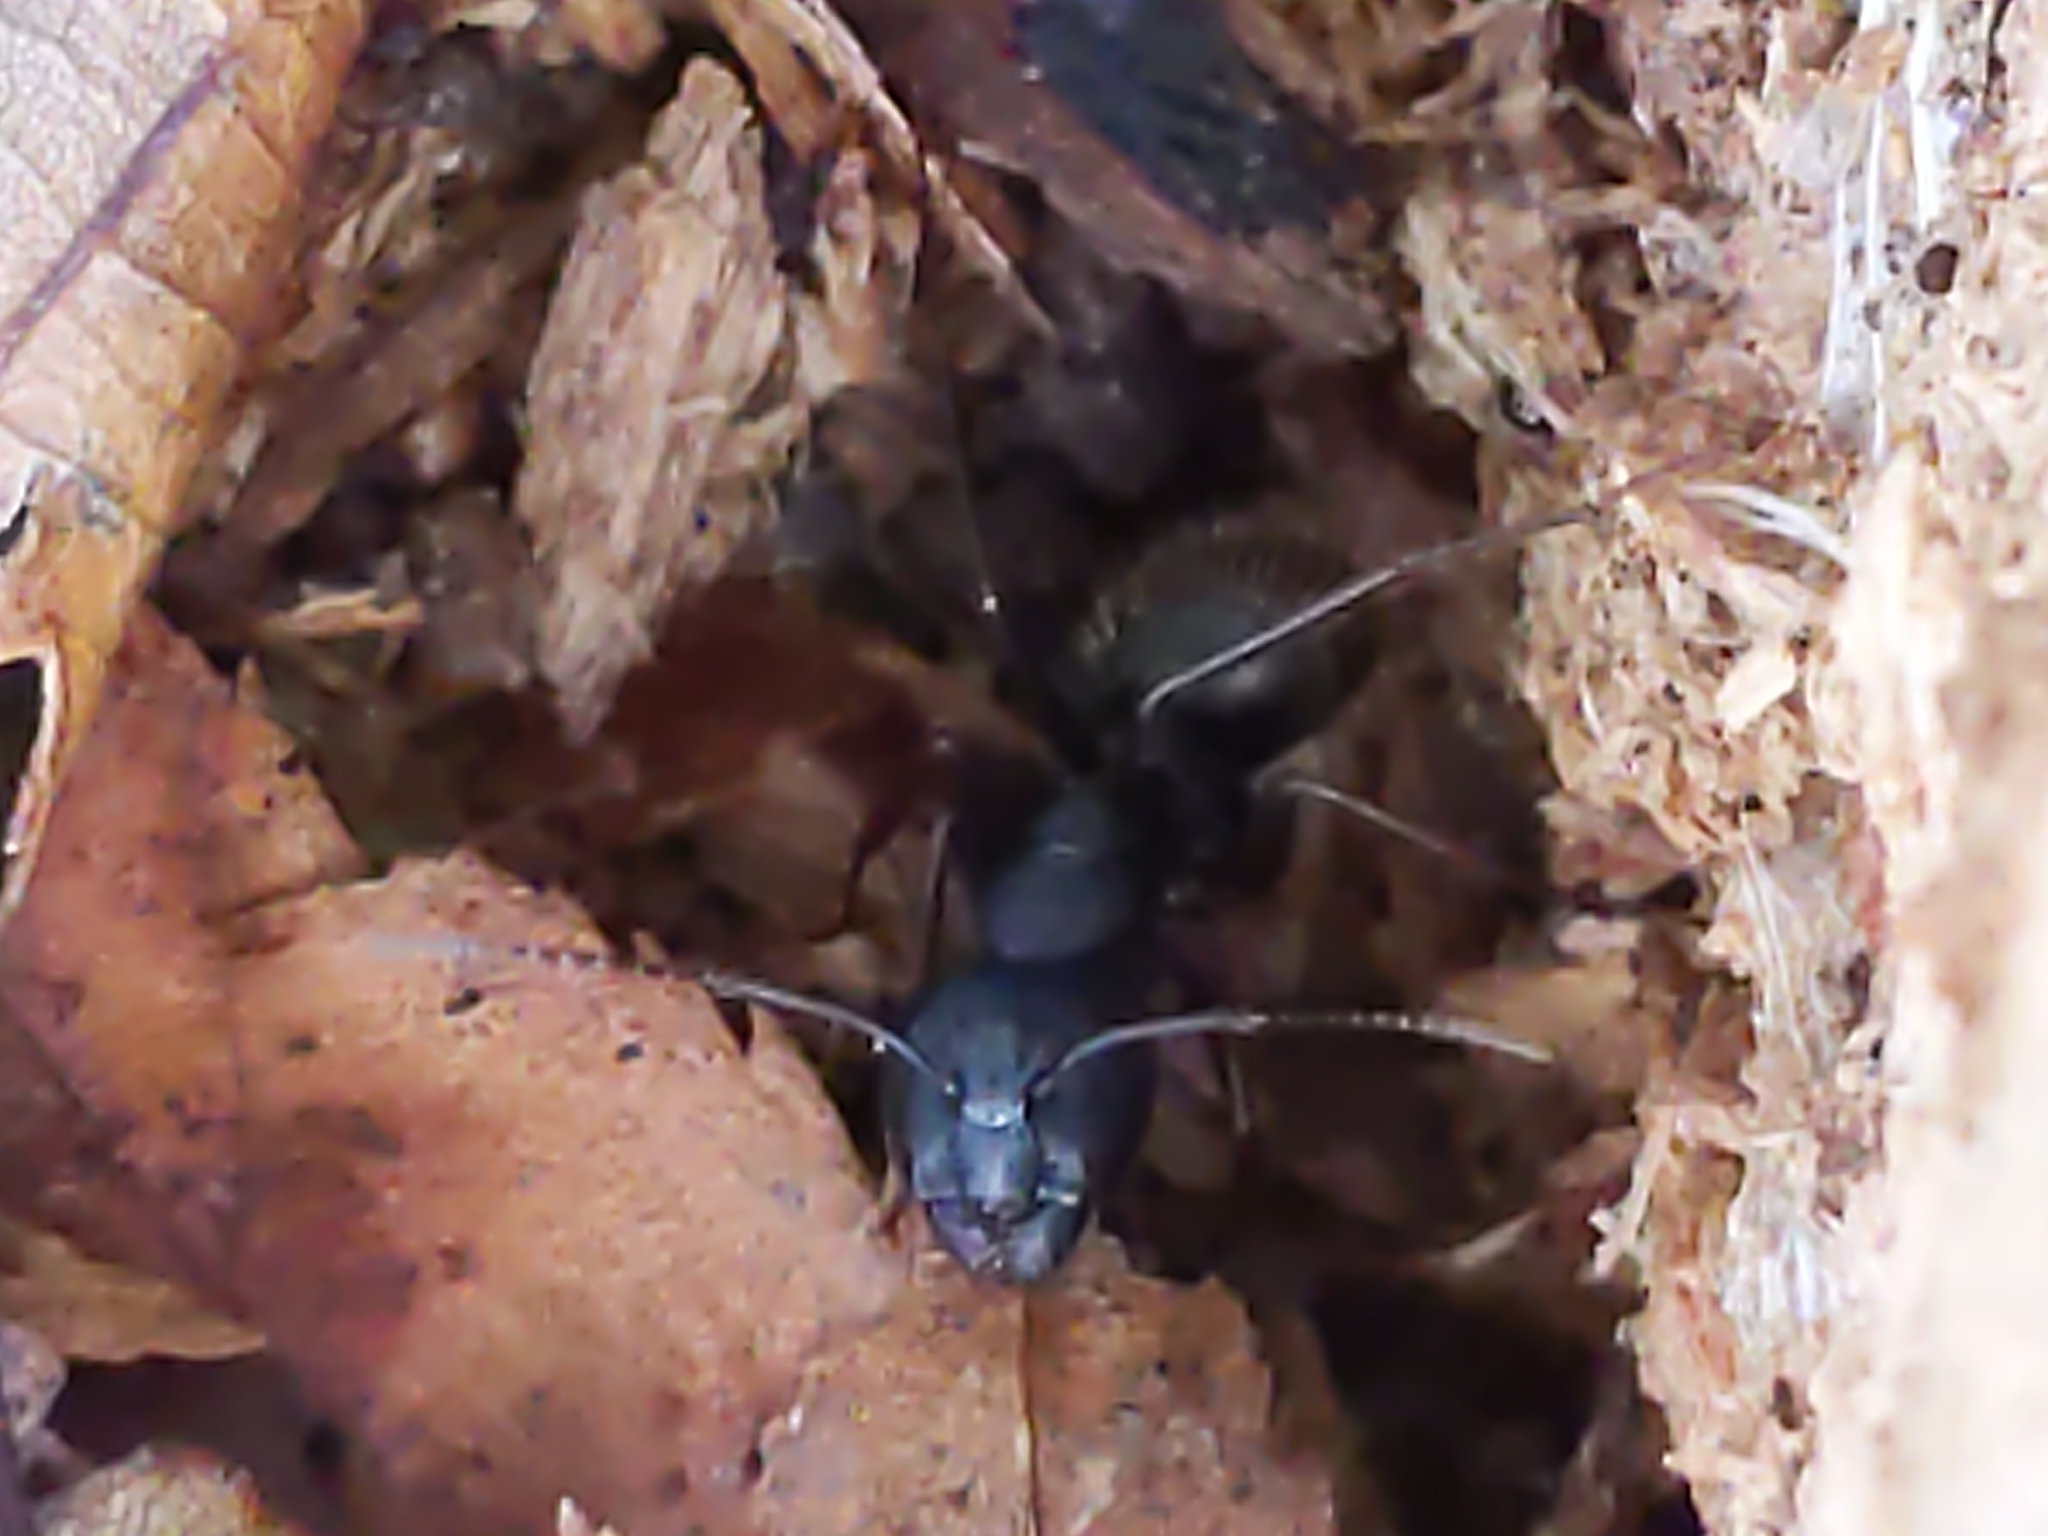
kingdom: Animalia
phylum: Arthropoda
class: Insecta
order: Hymenoptera
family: Formicidae
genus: Camponotus
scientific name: Camponotus pennsylvanicus
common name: Black carpenter ant
